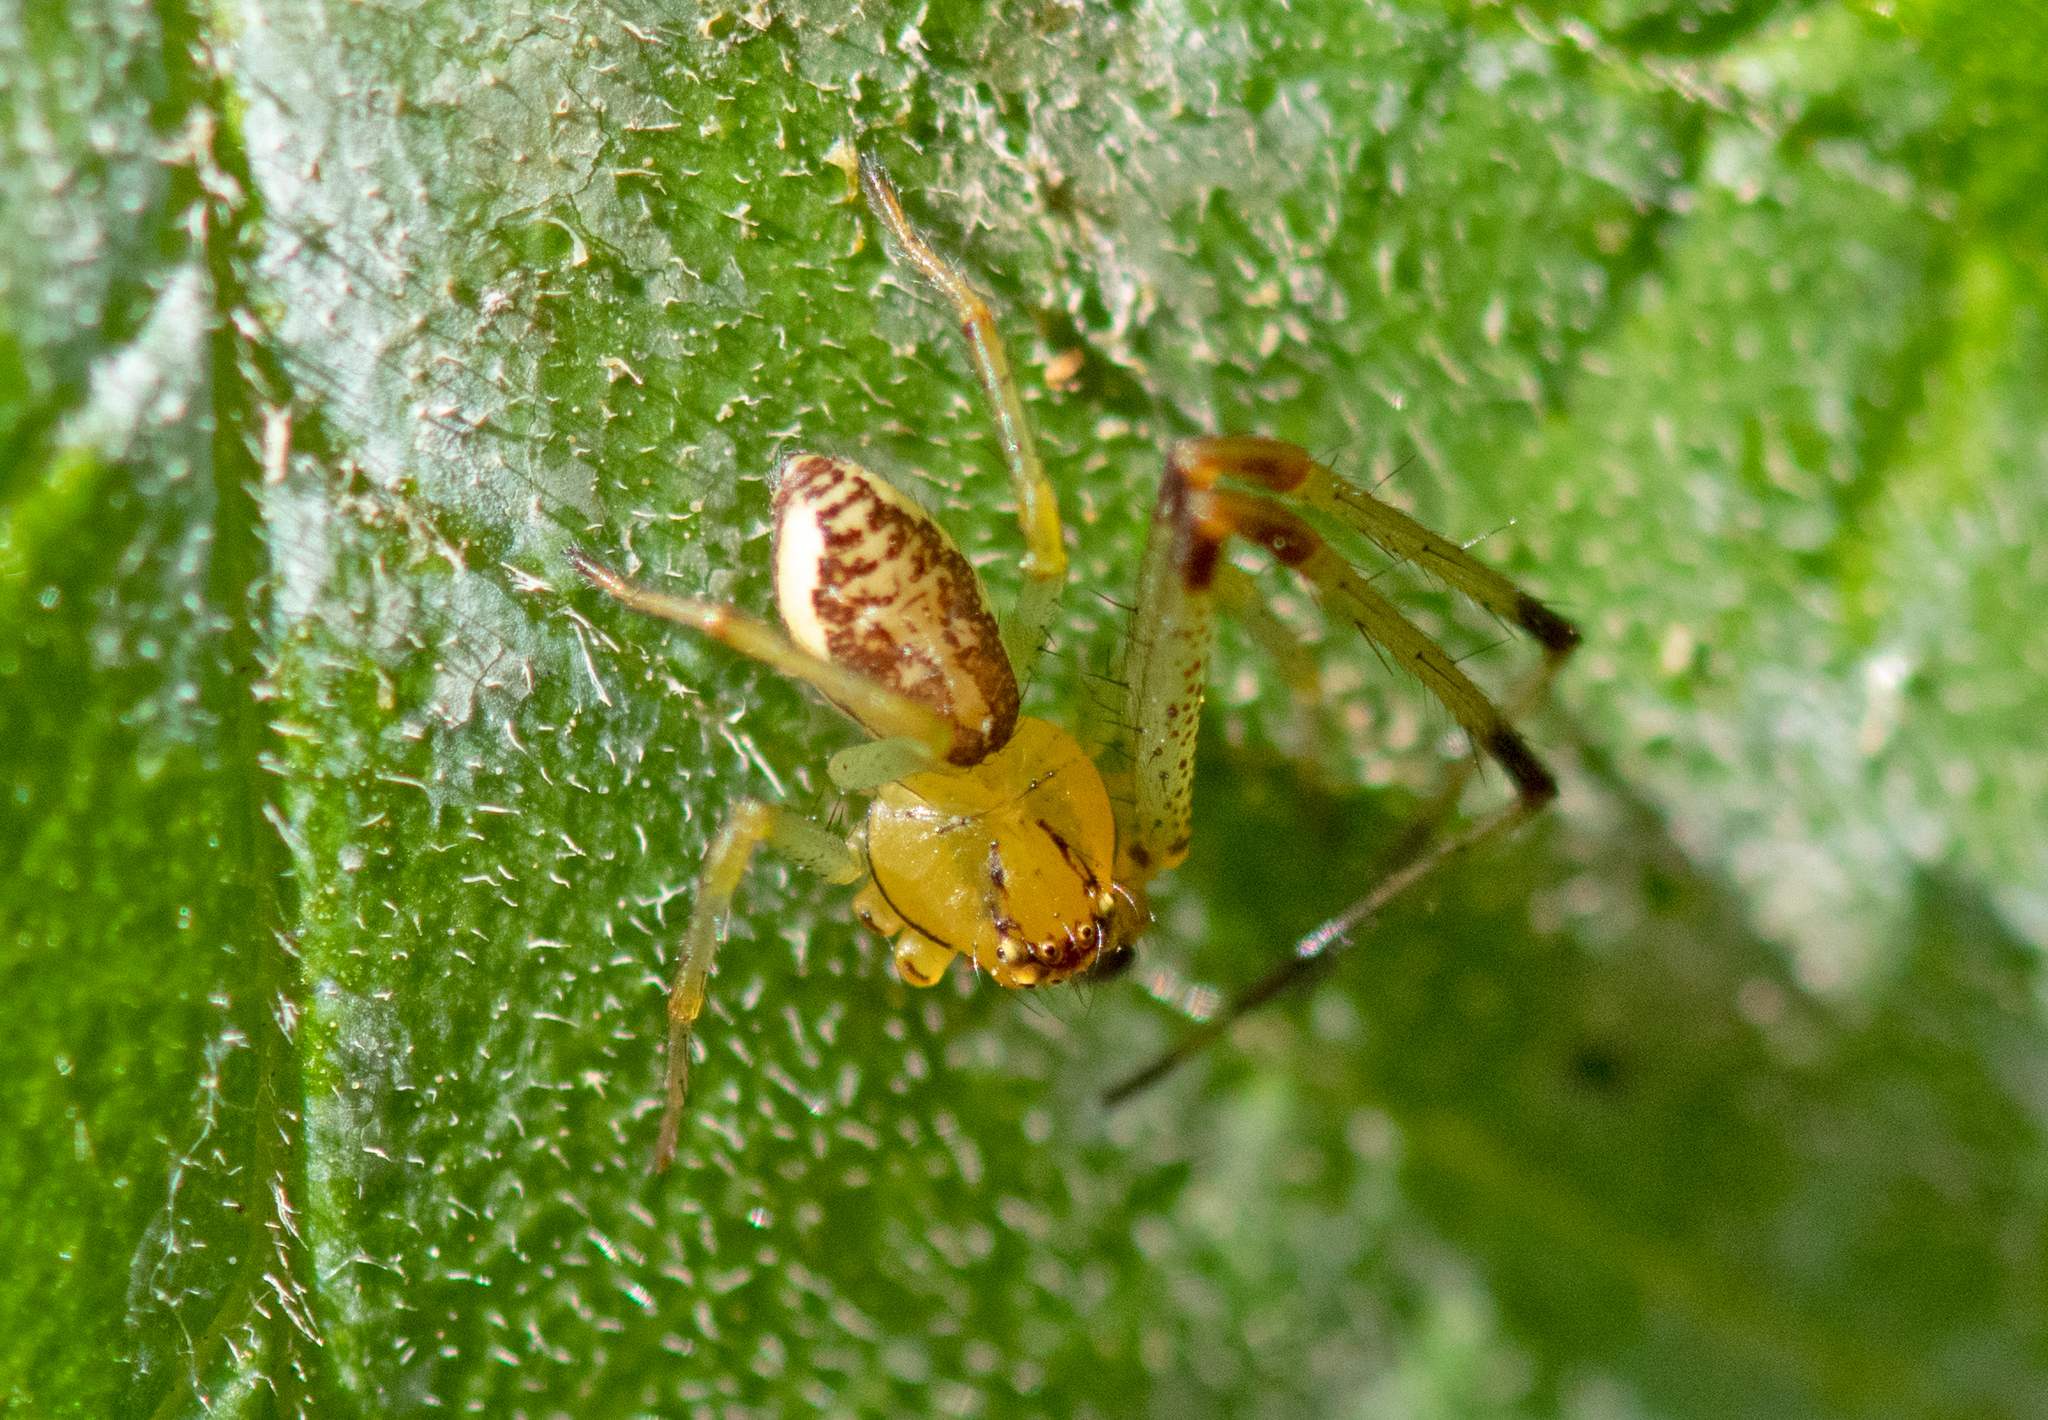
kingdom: Animalia
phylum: Arthropoda
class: Arachnida
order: Araneae
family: Thomisidae
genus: Diaea
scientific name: Diaea dorsata
